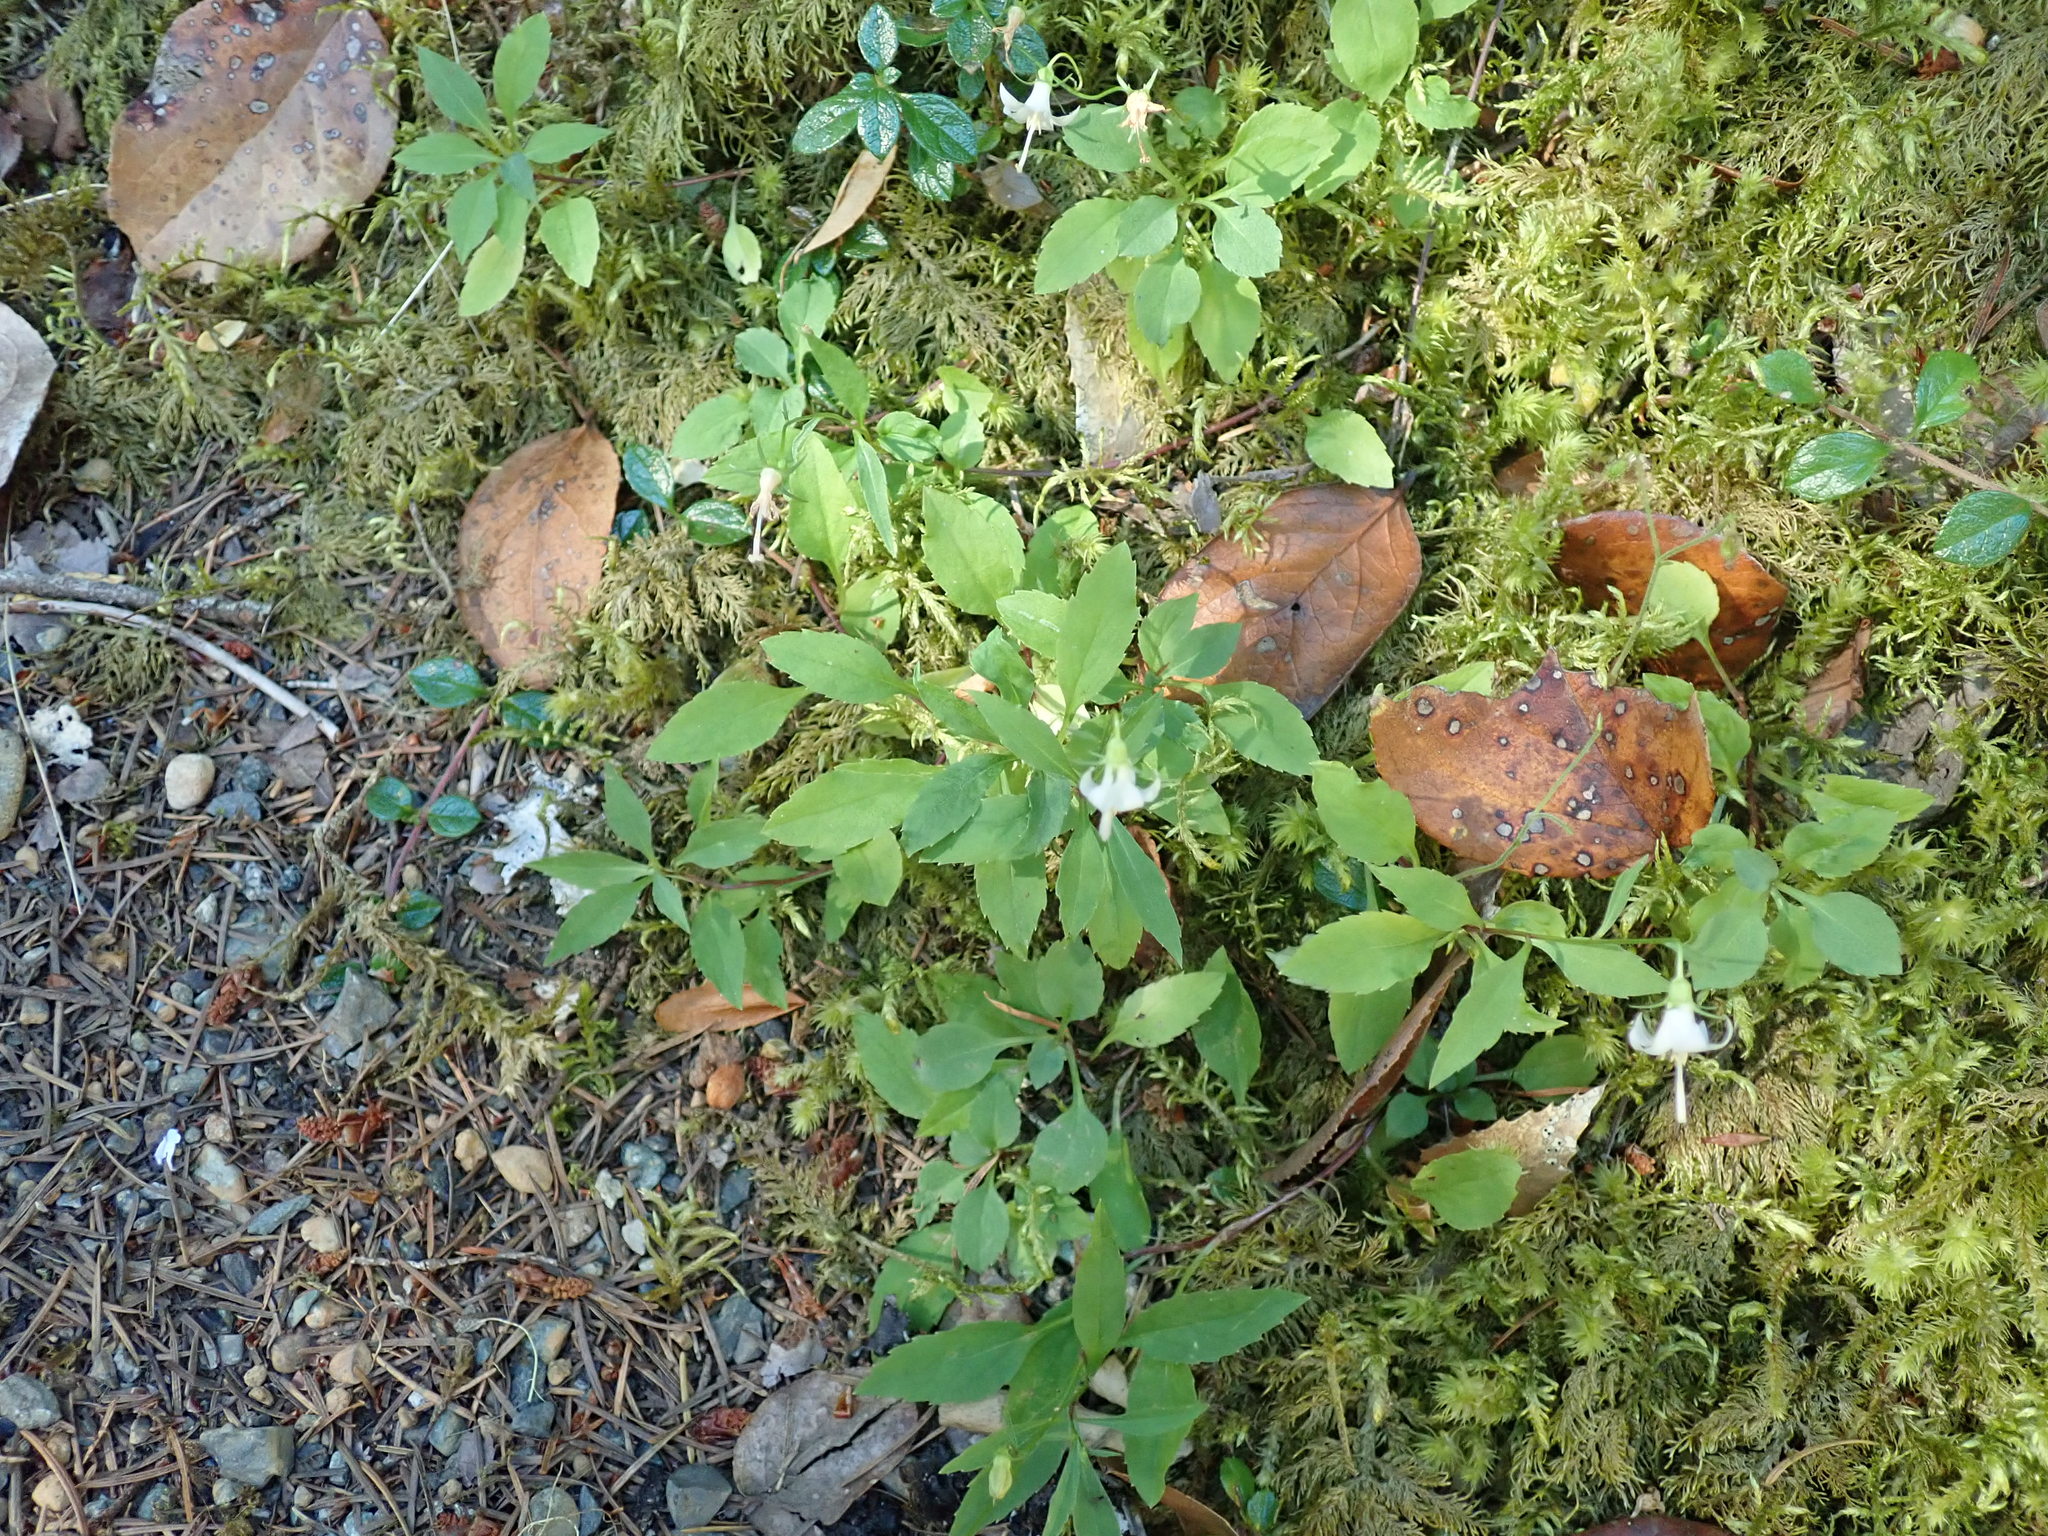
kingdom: Plantae
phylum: Tracheophyta
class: Magnoliopsida
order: Asterales
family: Campanulaceae
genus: Campanula
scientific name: Campanula scouleri
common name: Scouler's harebell
